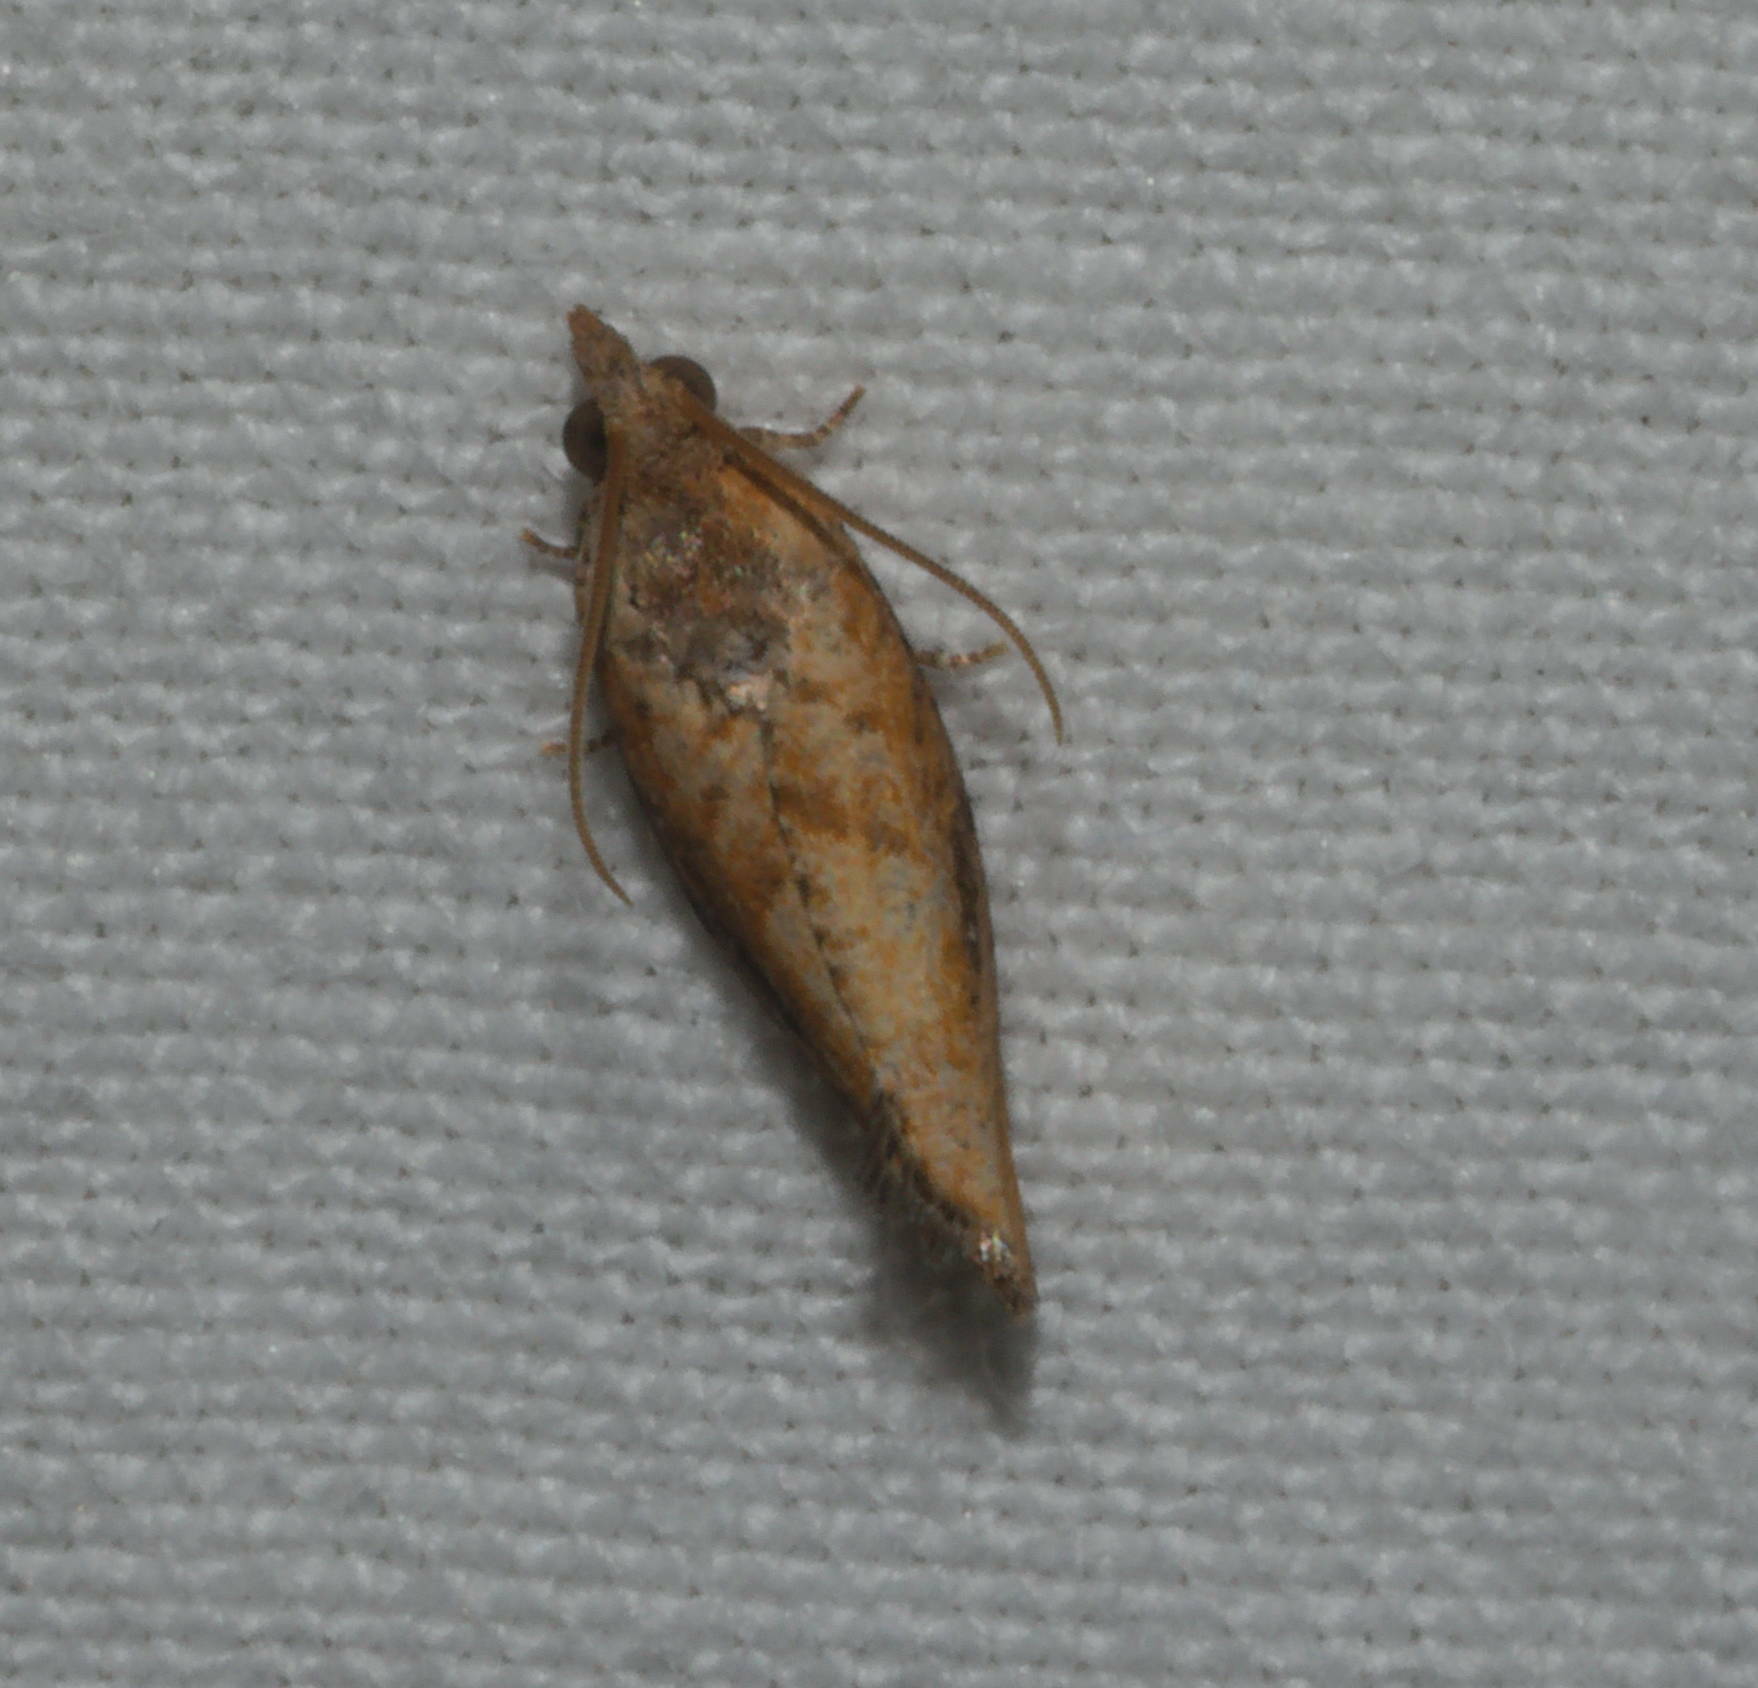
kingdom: Animalia
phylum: Arthropoda
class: Insecta
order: Lepidoptera
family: Tortricidae
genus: Cryptophlebia
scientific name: Cryptophlebia illepida
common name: Moth
